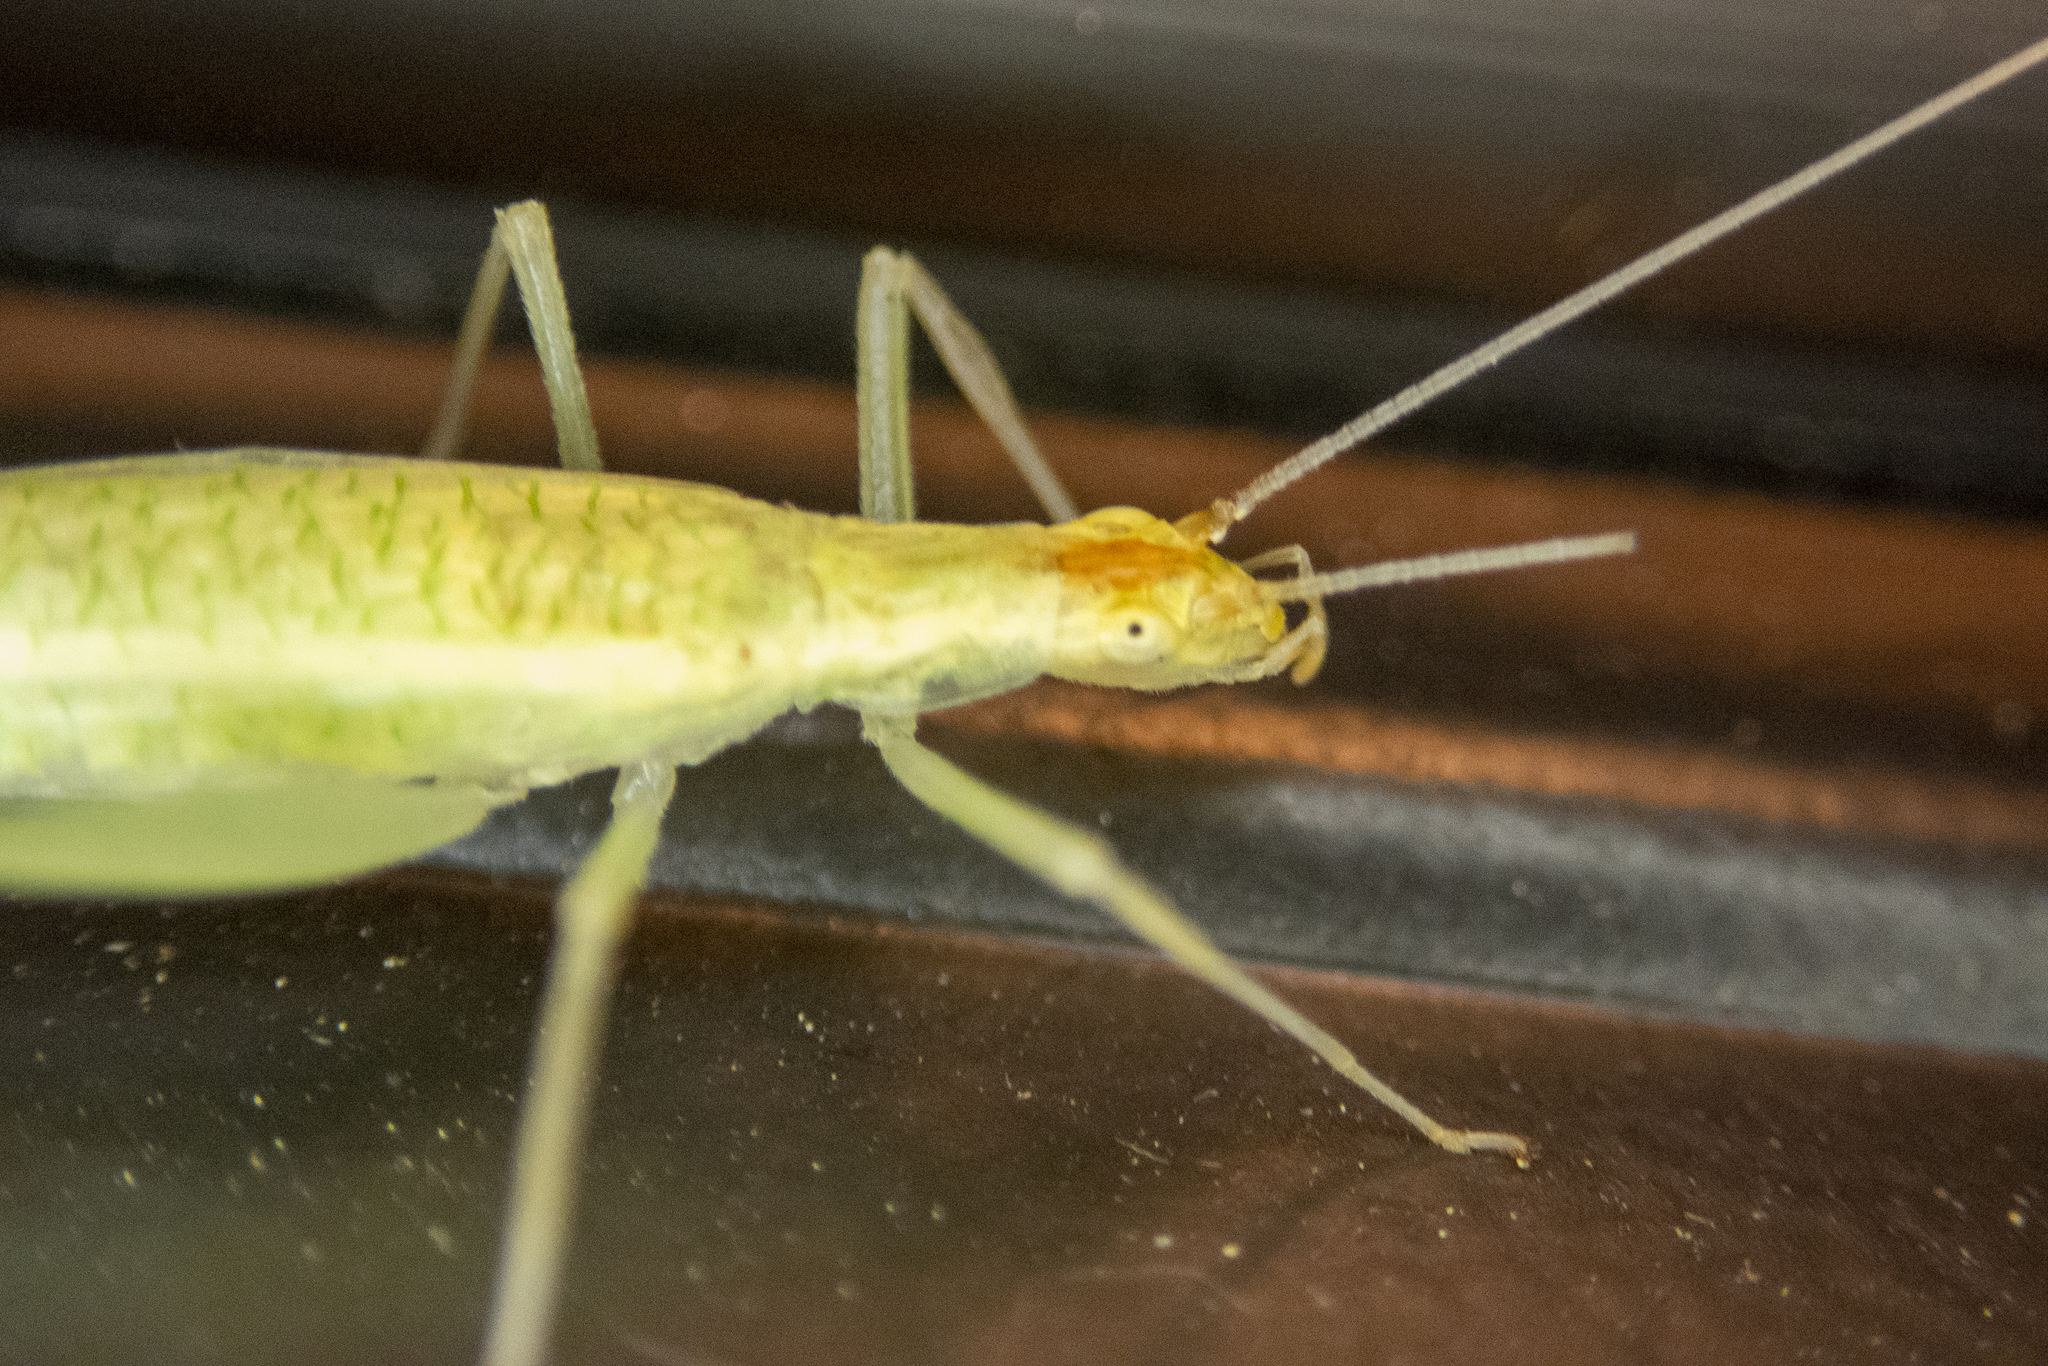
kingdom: Animalia
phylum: Arthropoda
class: Insecta
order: Orthoptera
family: Gryllidae
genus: Oecanthus
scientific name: Oecanthus niveus
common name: Narrow-winged tree cricket
